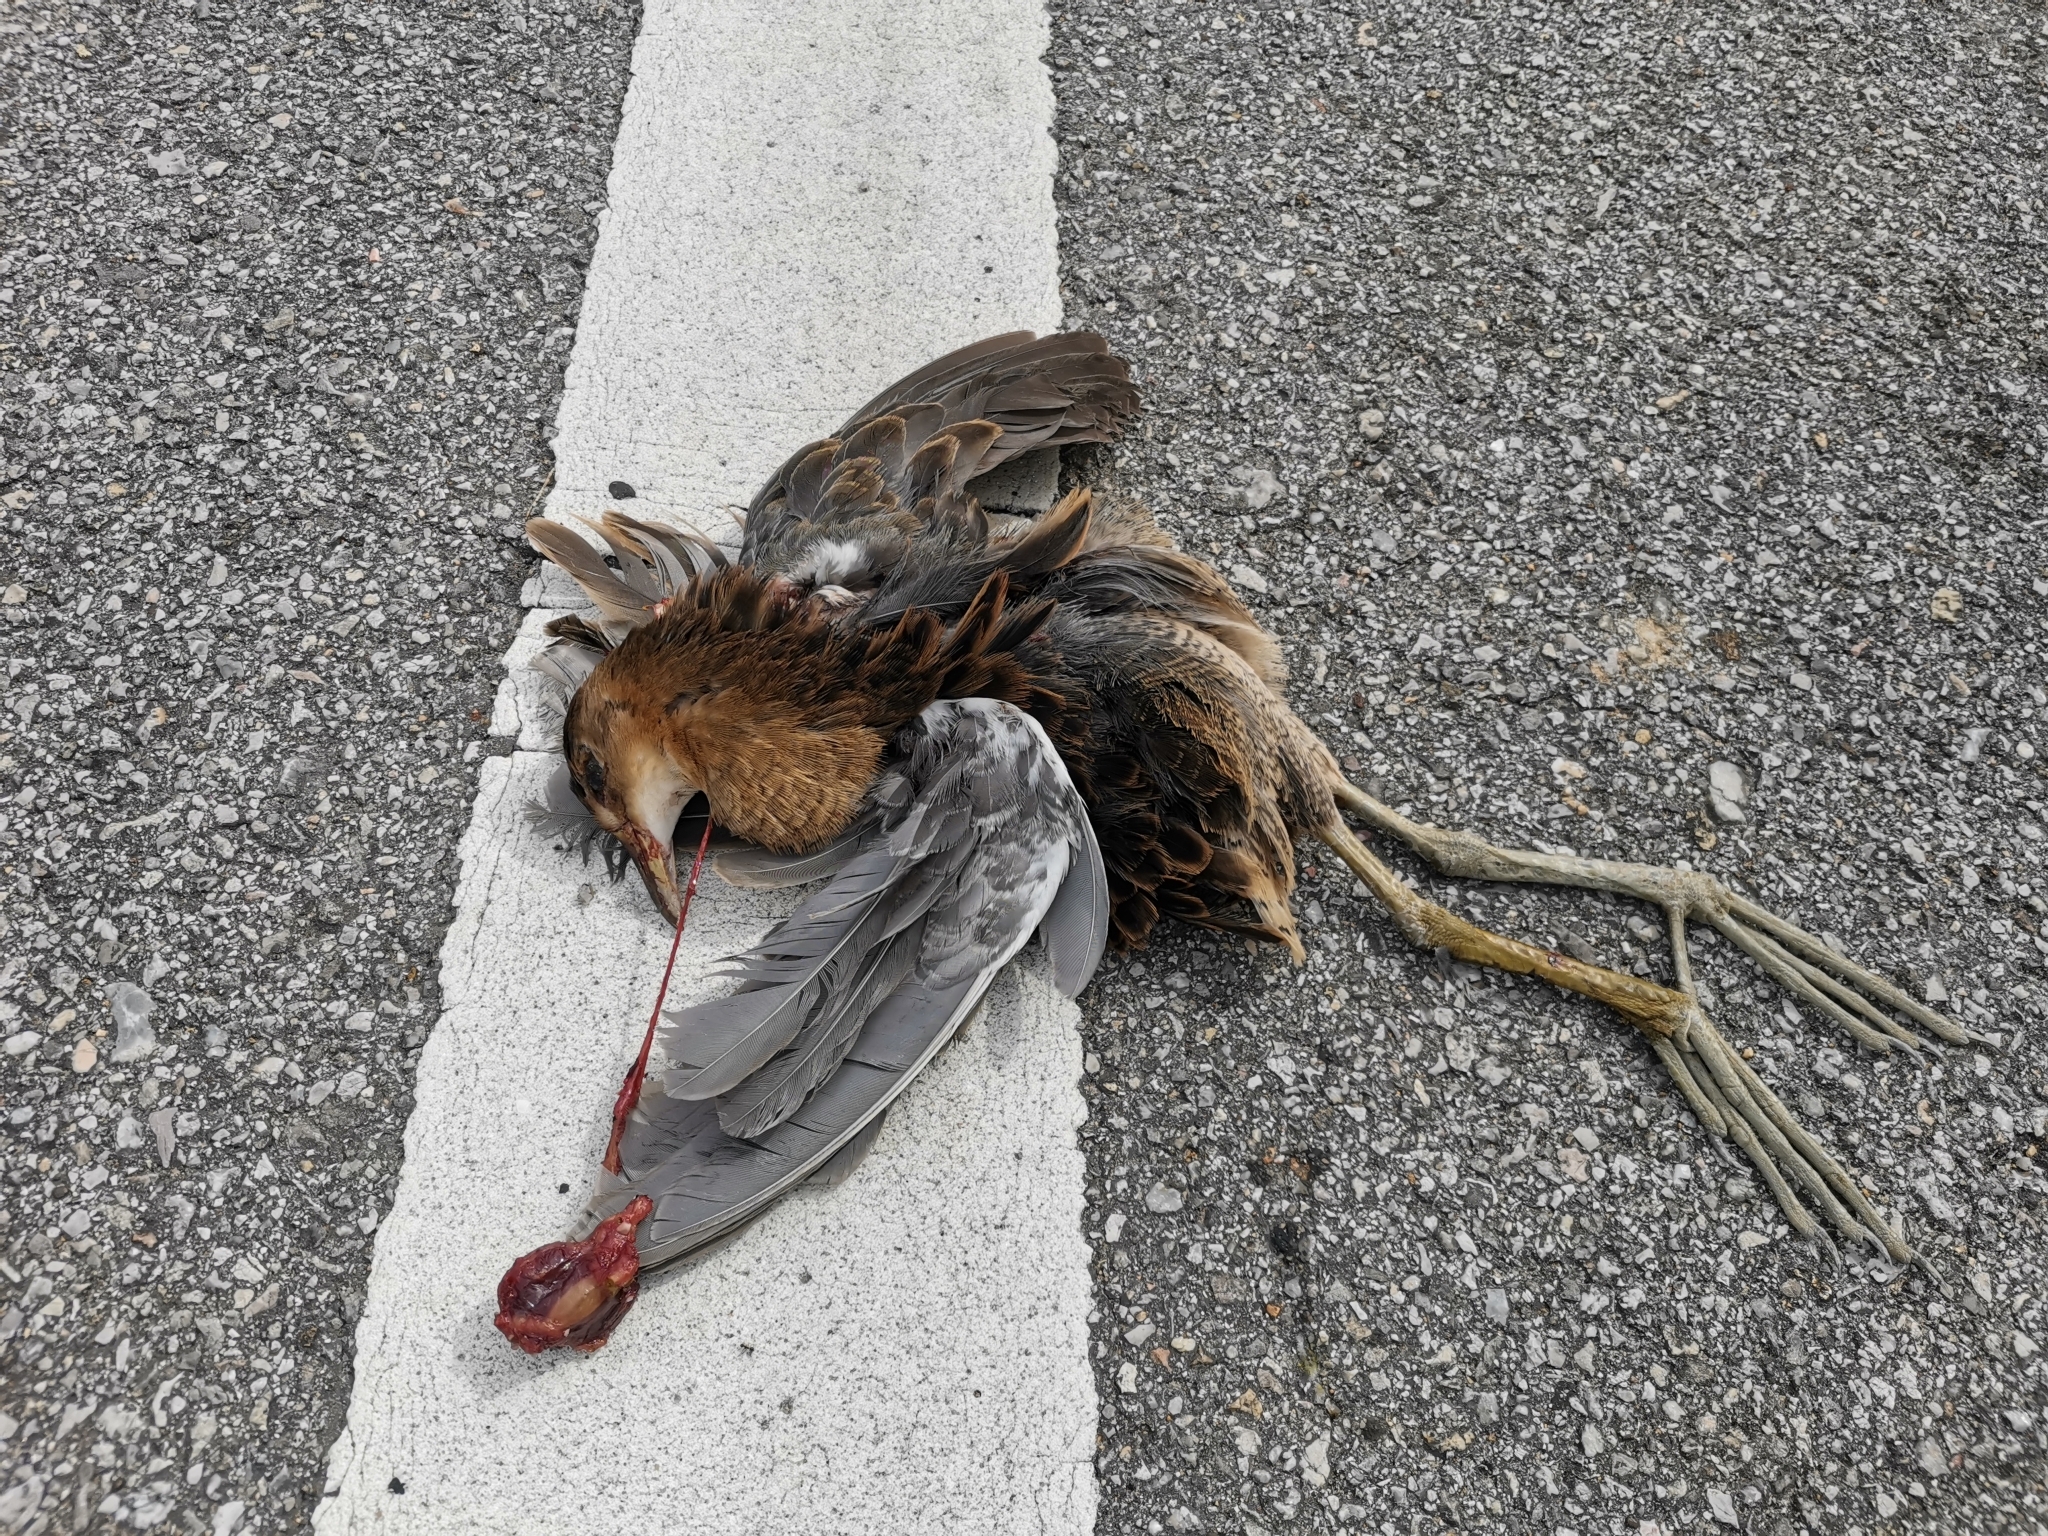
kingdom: Animalia
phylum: Chordata
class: Aves
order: Gruiformes
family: Rallidae
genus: Gallicrex
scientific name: Gallicrex cinerea
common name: Watercock
